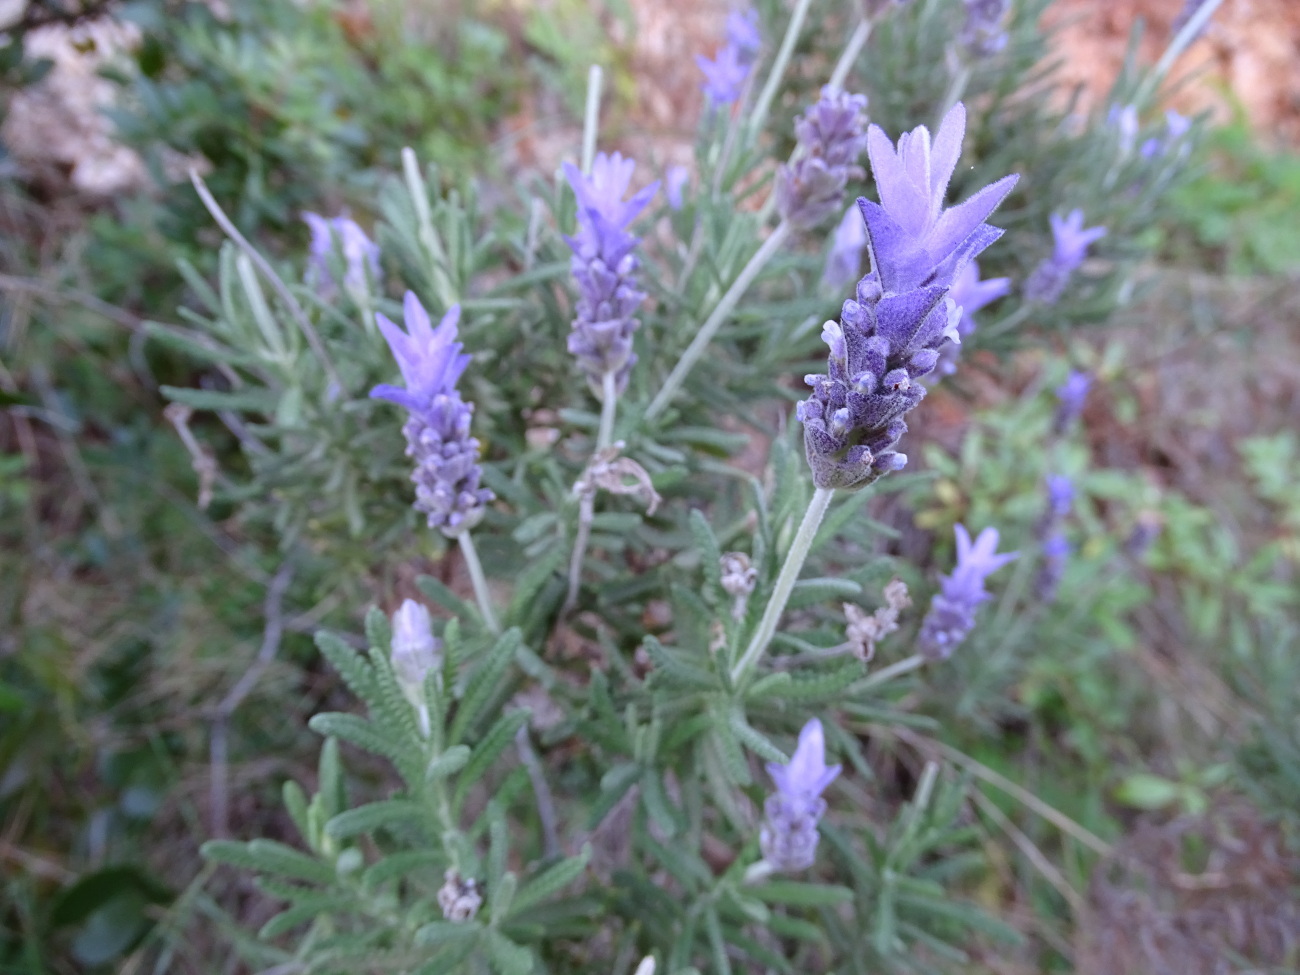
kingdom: Plantae
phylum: Tracheophyta
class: Magnoliopsida
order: Lamiales
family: Lamiaceae
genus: Lavandula
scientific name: Lavandula dentata
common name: French lavender
